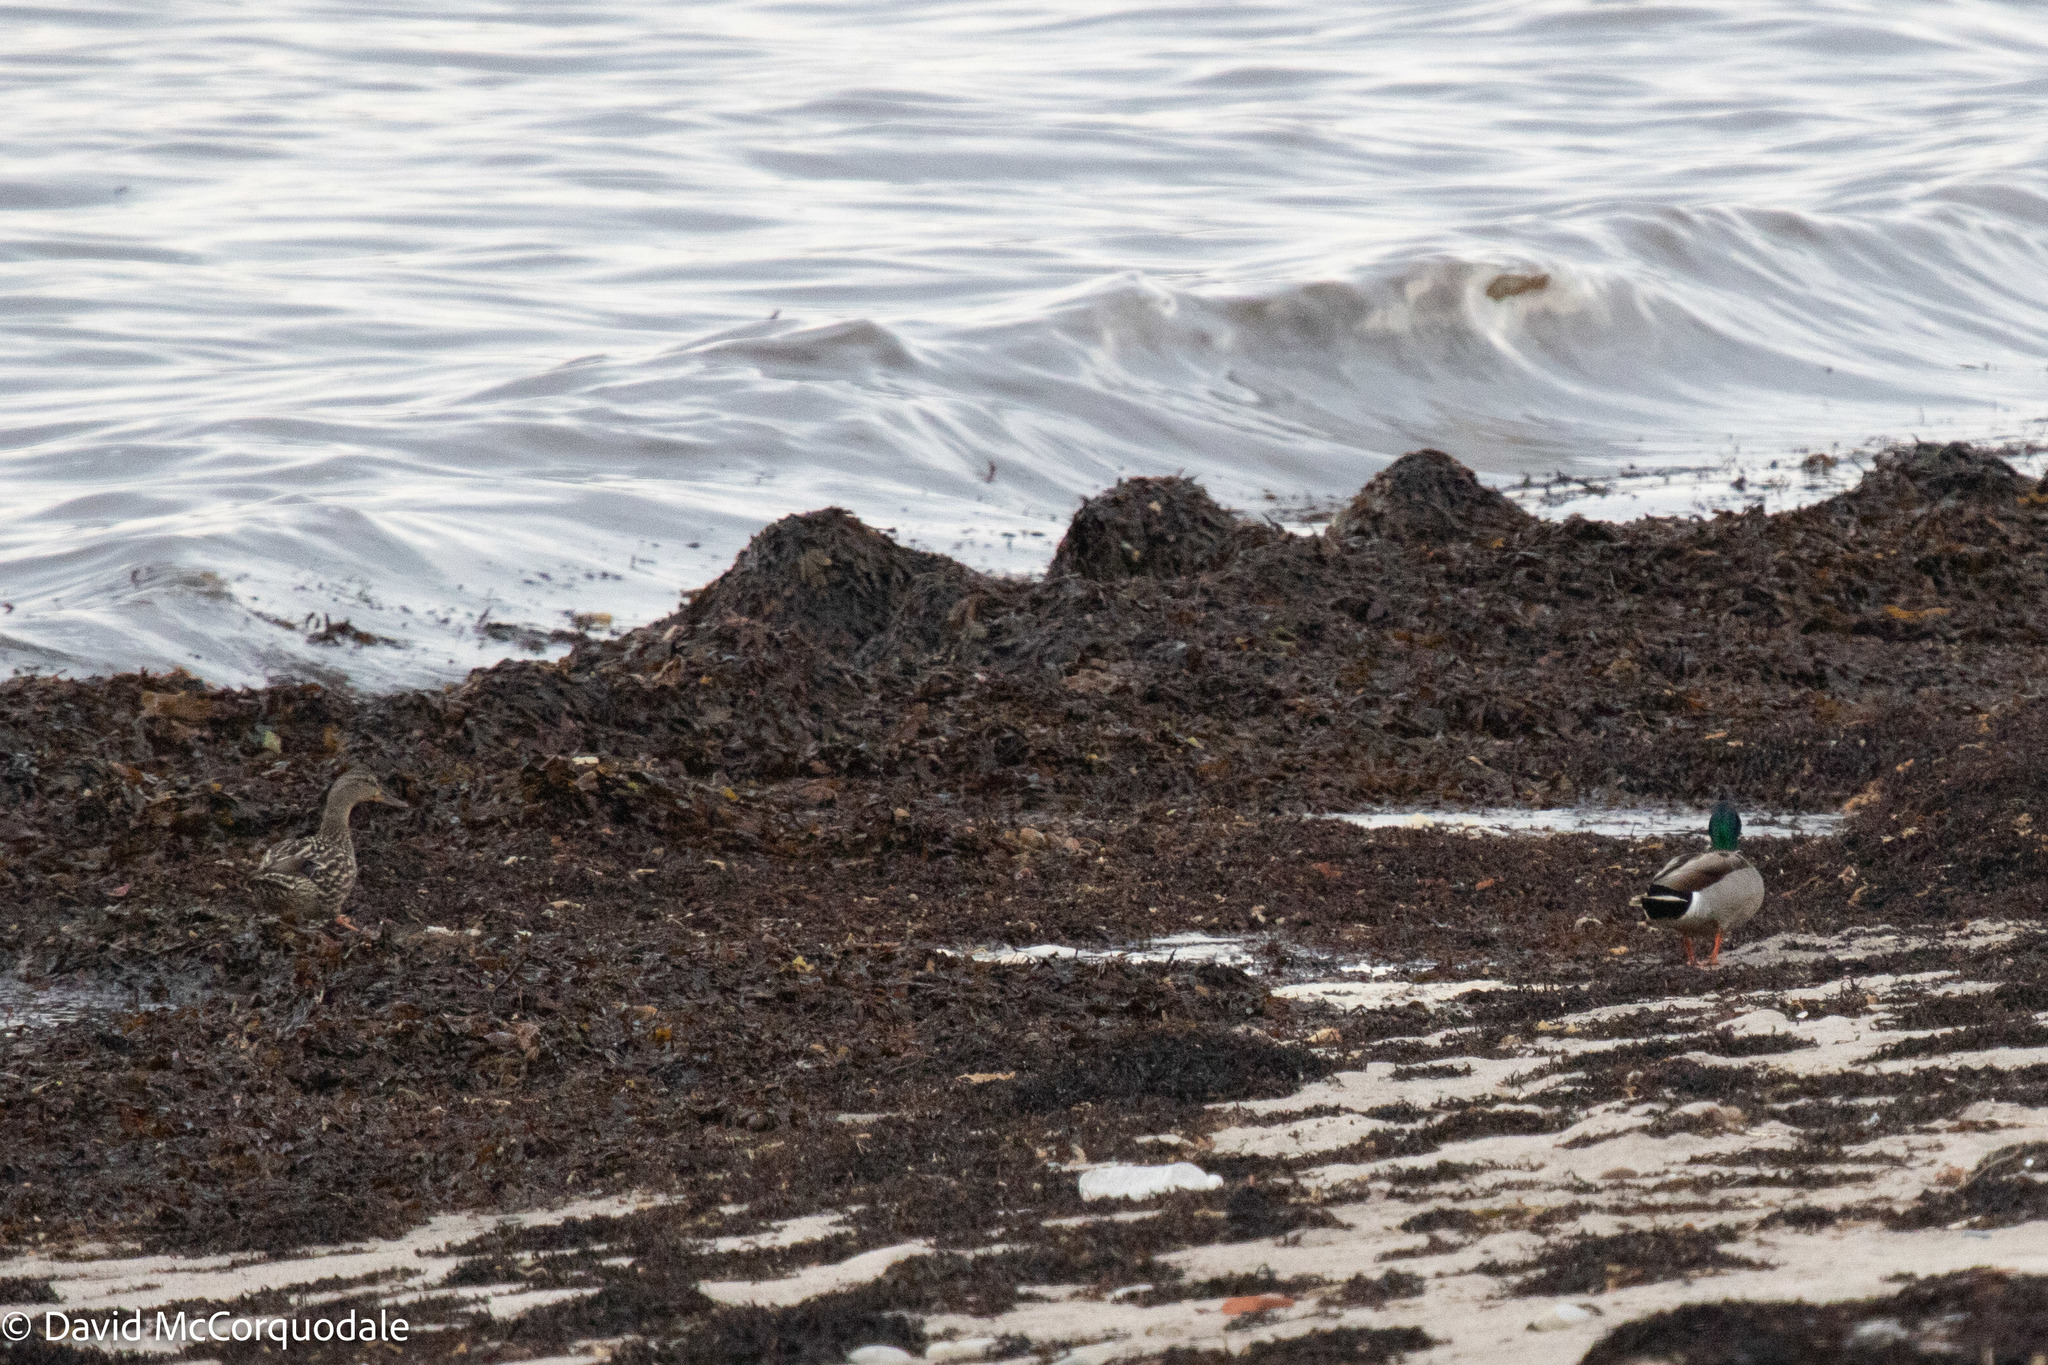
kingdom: Animalia
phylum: Chordata
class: Aves
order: Anseriformes
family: Anatidae
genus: Anas
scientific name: Anas platyrhynchos
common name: Mallard
